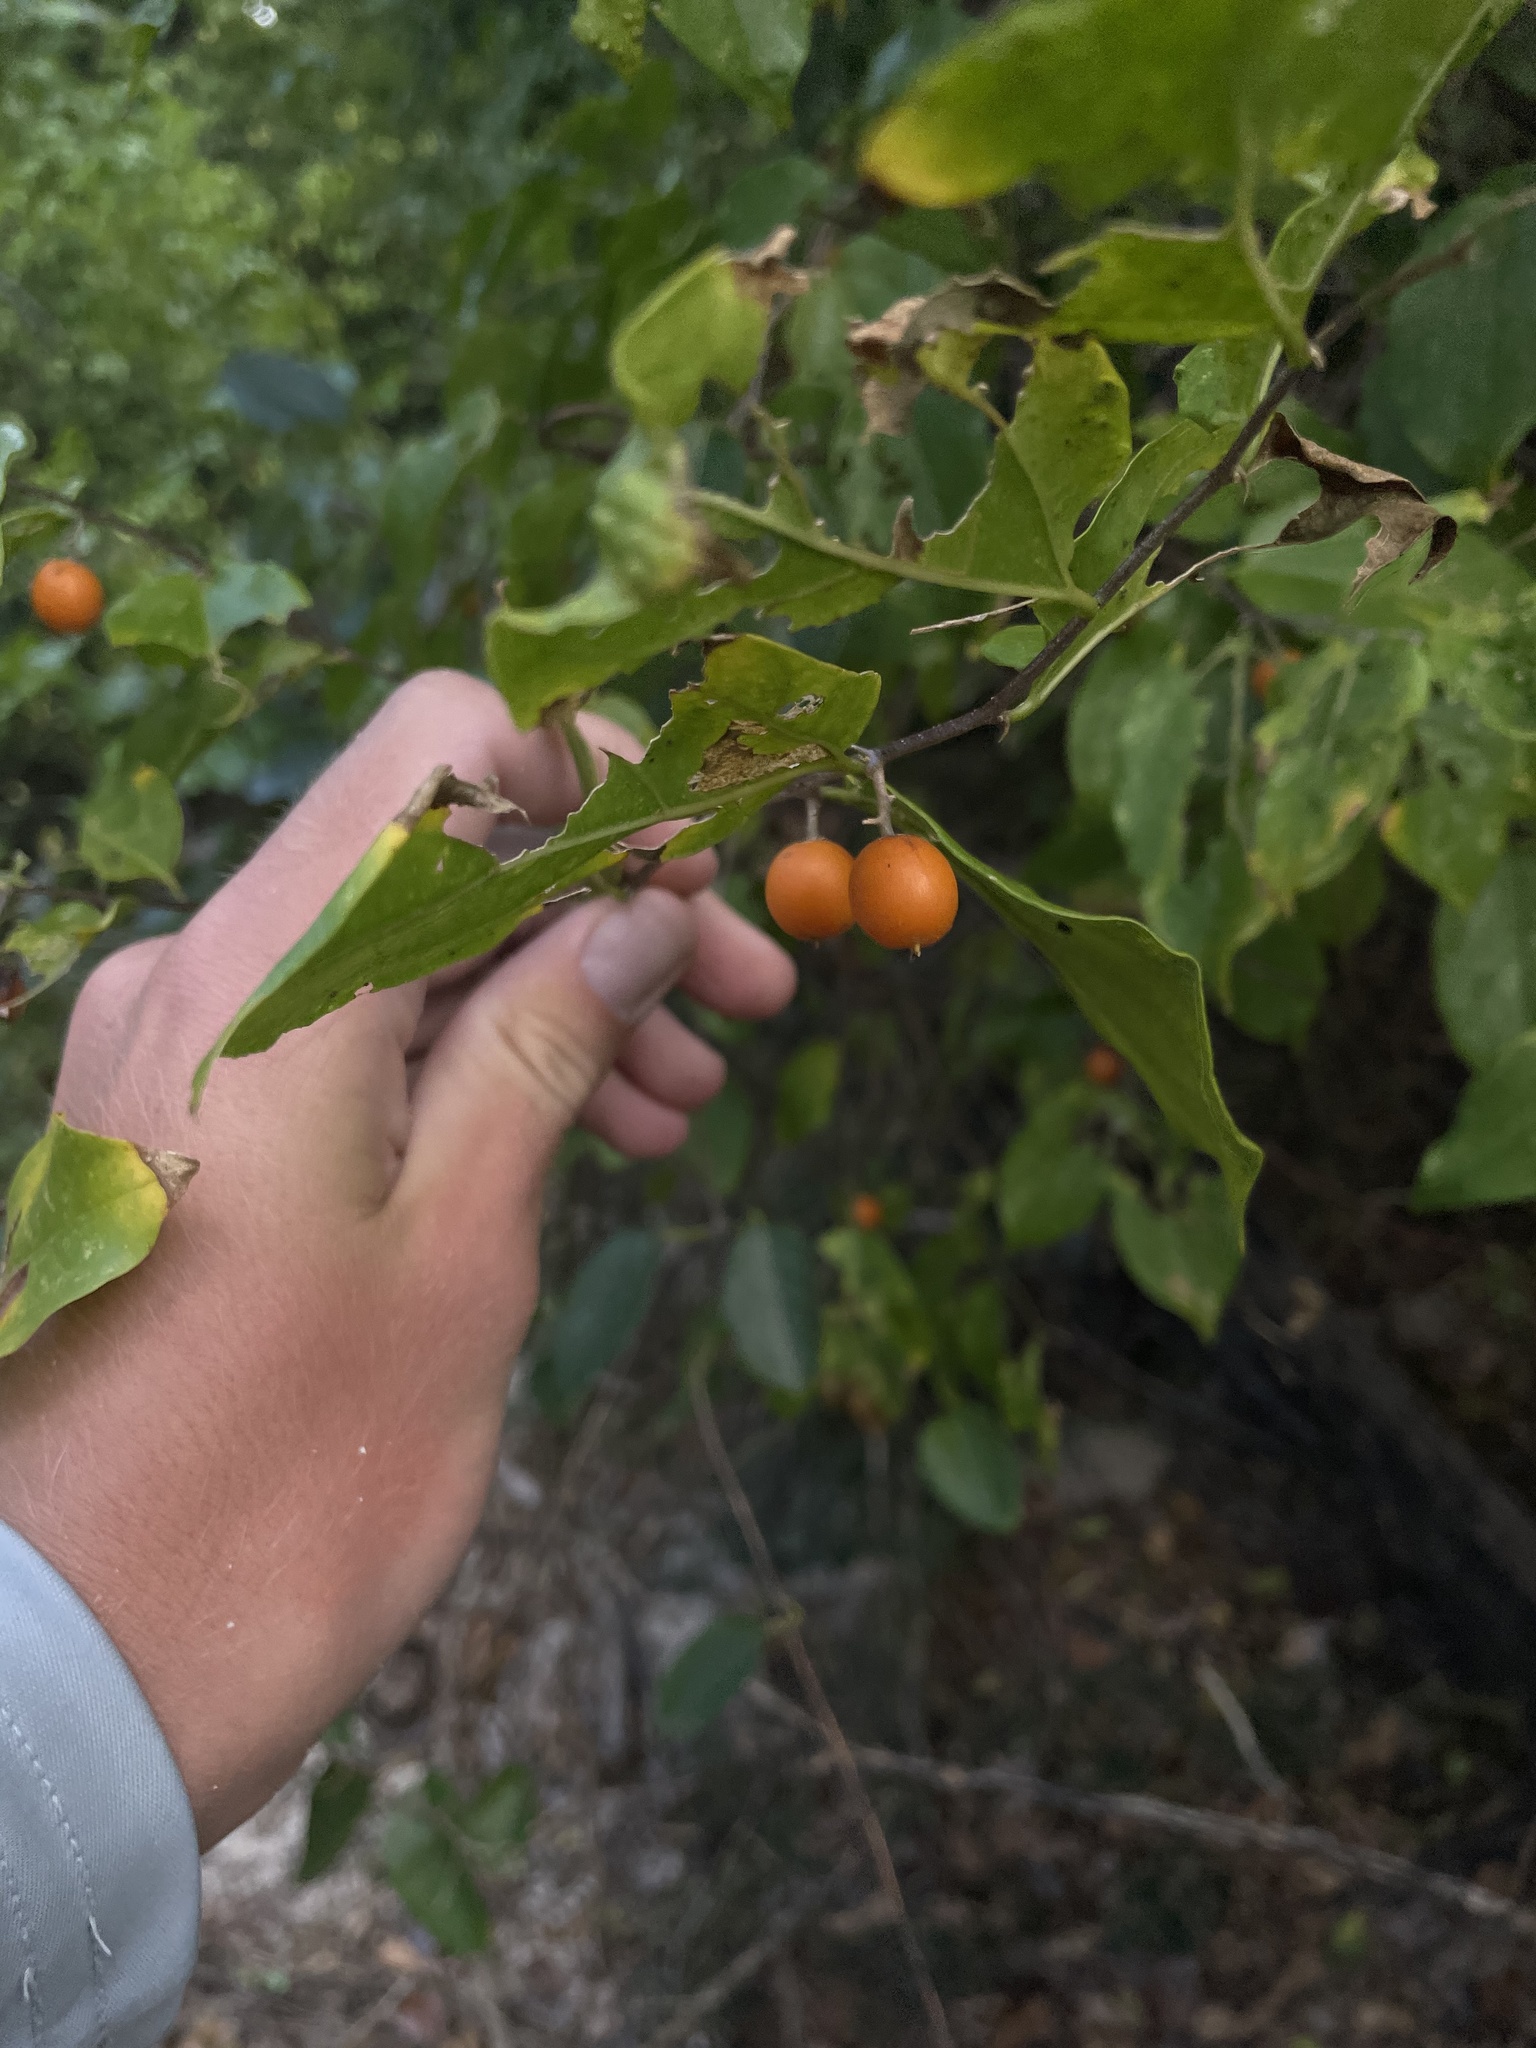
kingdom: Plantae
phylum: Tracheophyta
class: Magnoliopsida
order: Rosales
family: Cannabaceae
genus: Celtis
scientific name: Celtis iguanaea
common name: Iguana hackberry
